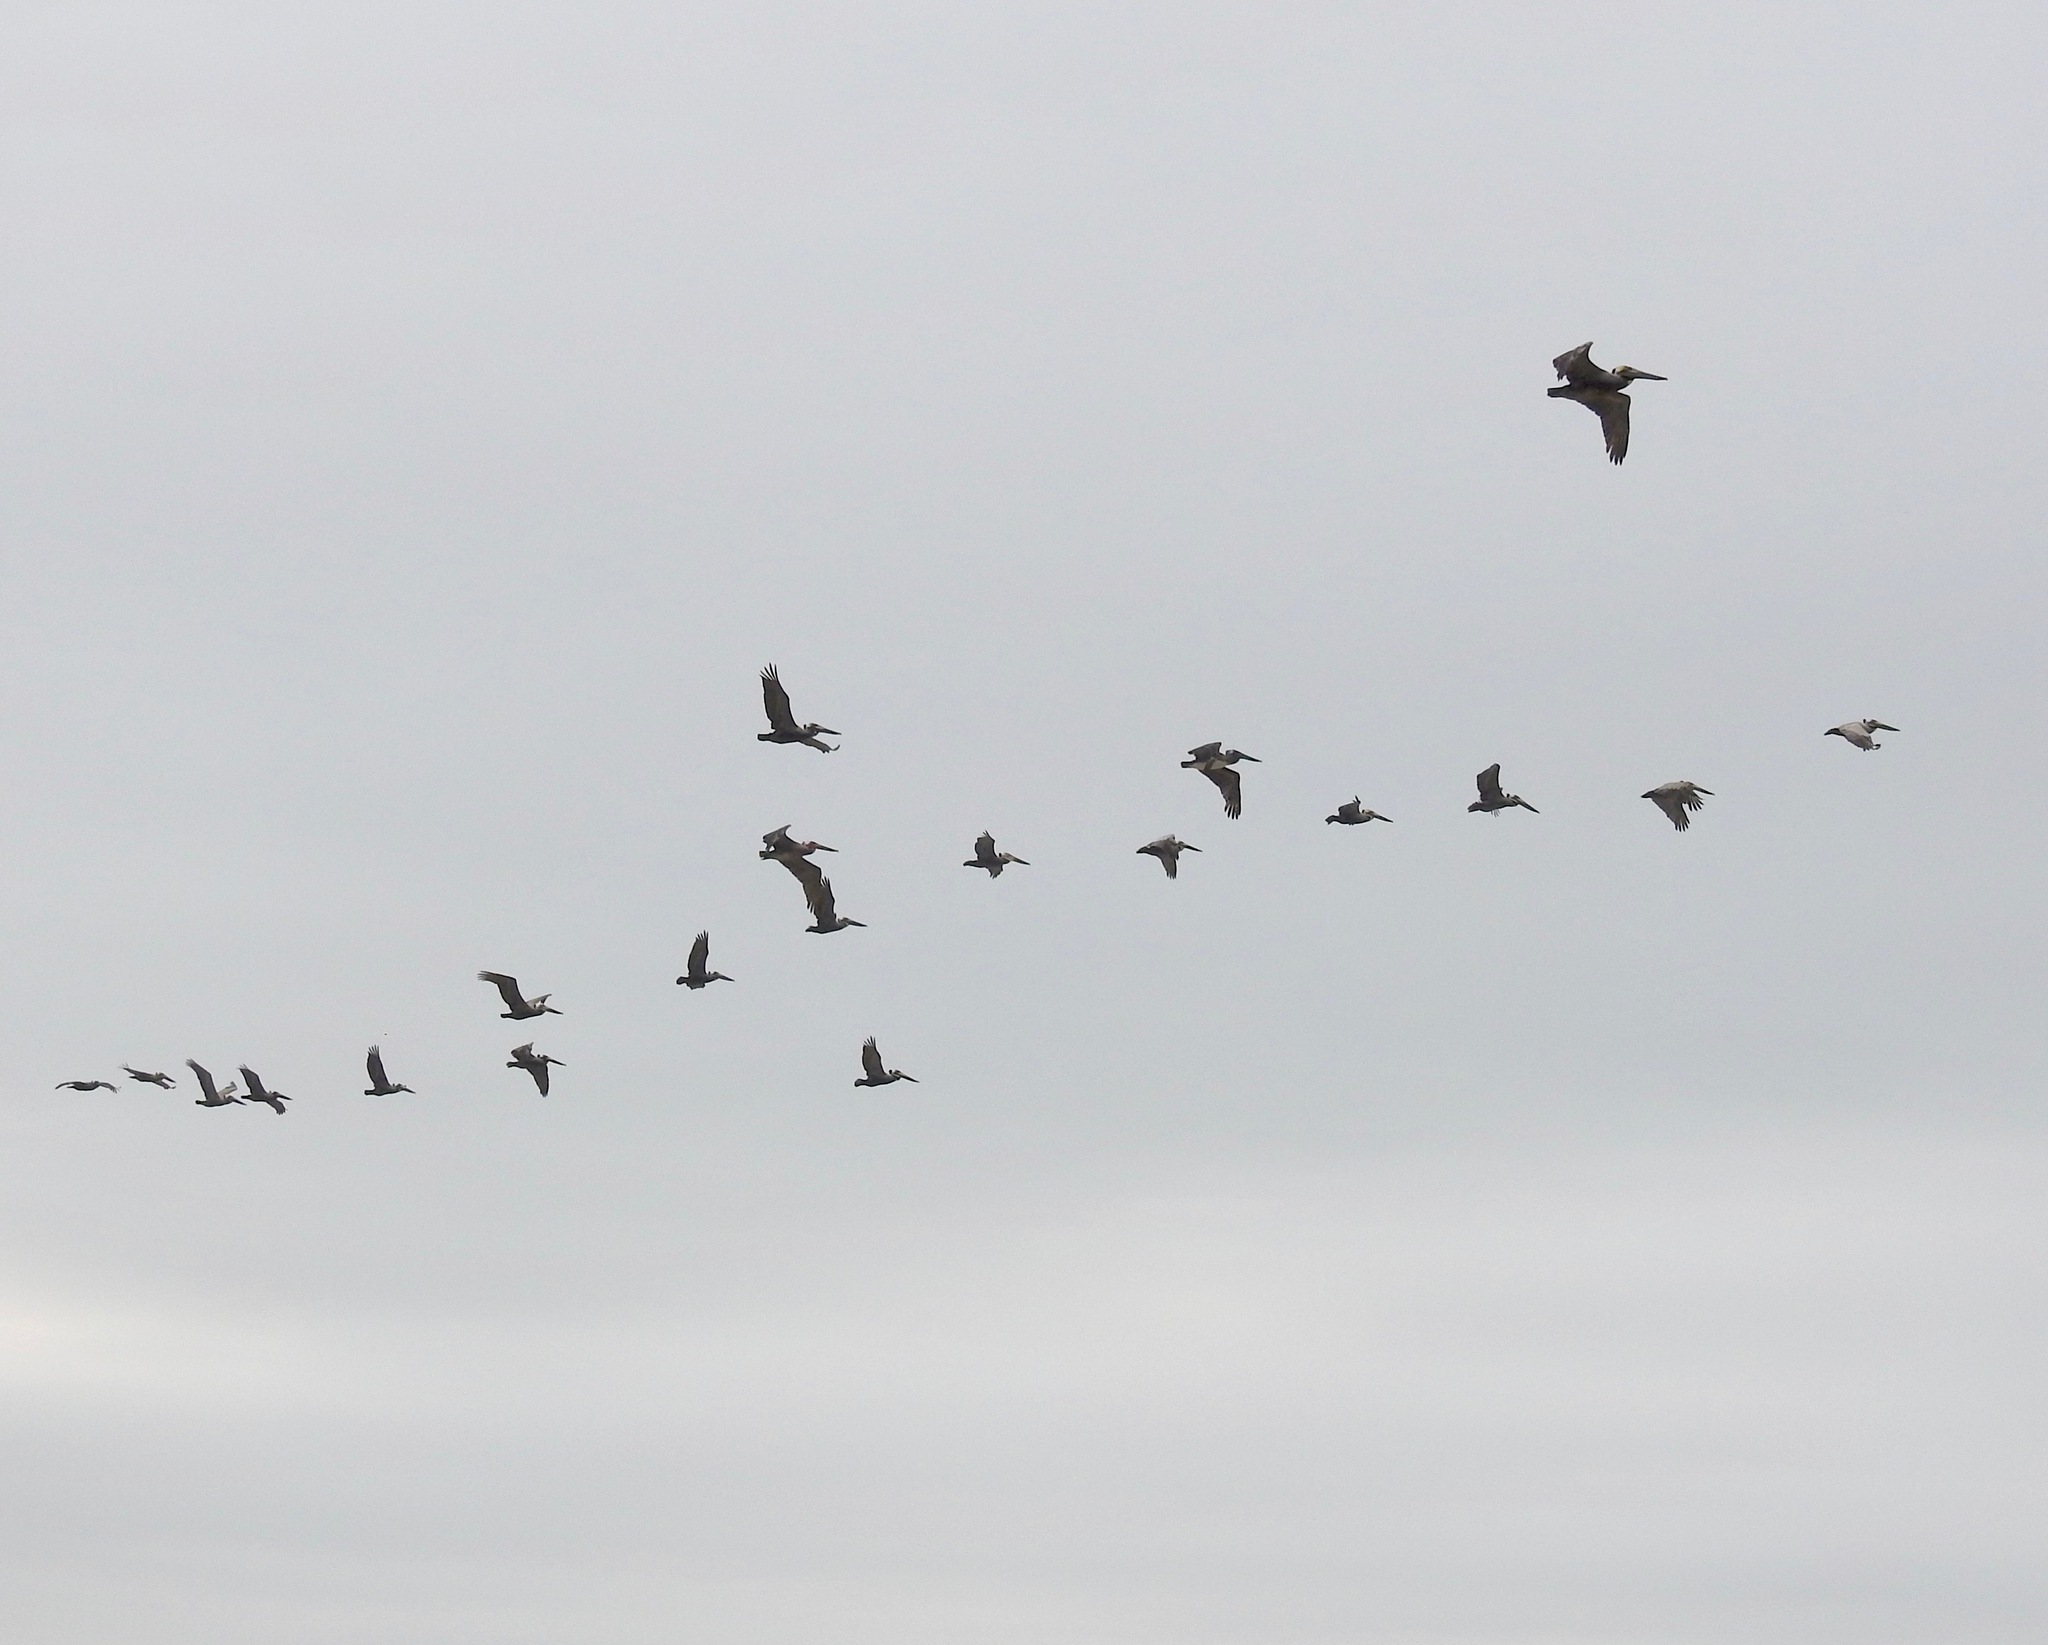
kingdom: Animalia
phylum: Chordata
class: Aves
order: Pelecaniformes
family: Pelecanidae
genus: Pelecanus
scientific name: Pelecanus occidentalis
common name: Brown pelican
